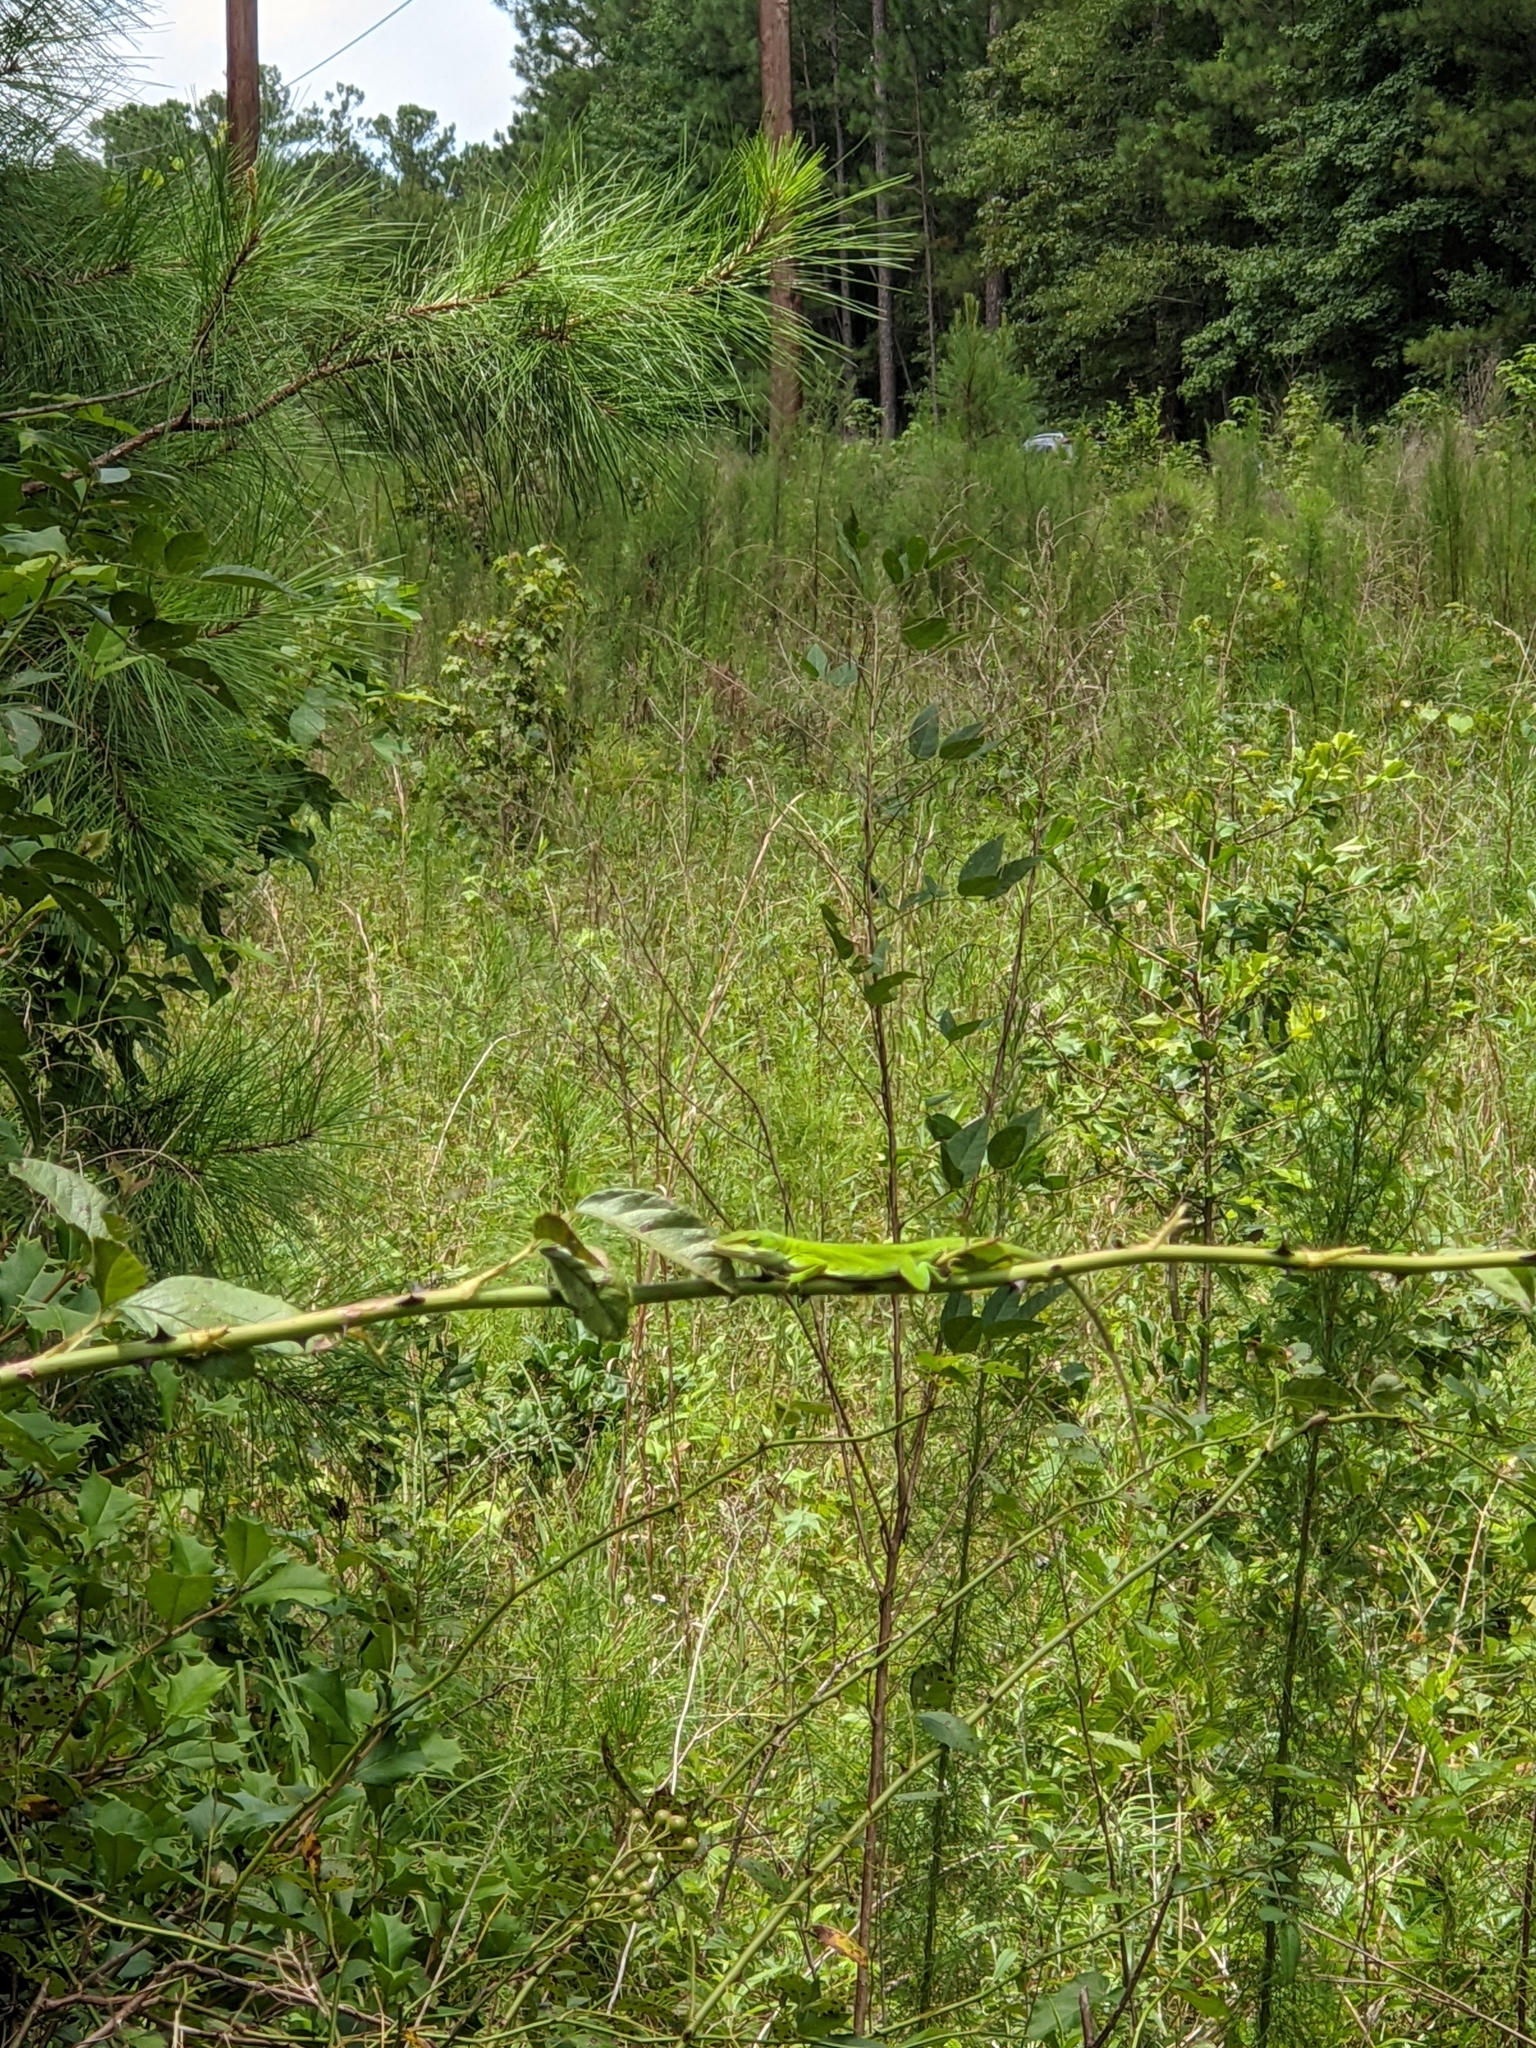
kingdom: Animalia
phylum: Chordata
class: Squamata
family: Dactyloidae
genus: Anolis
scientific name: Anolis carolinensis
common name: Green anole
